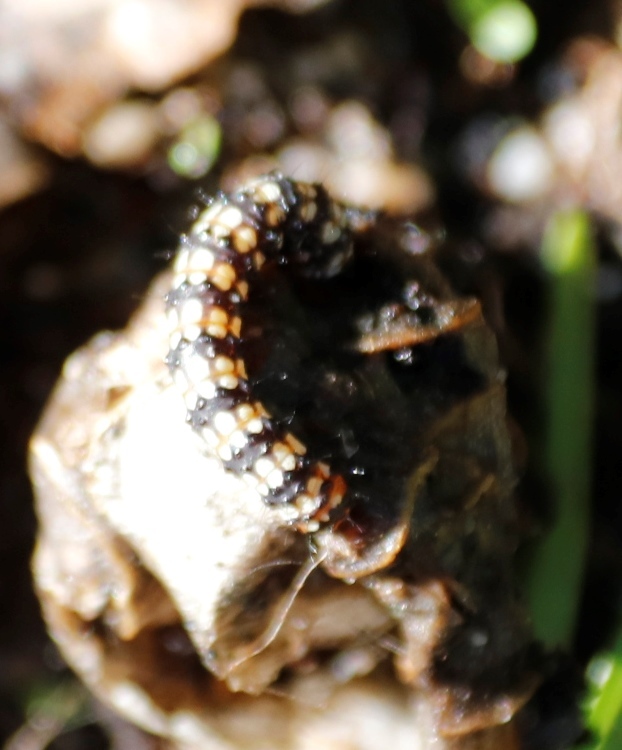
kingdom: Animalia
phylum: Arthropoda
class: Insecta
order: Lepidoptera
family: Noctuidae
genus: Brithys
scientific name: Brithys crini
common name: Kew arches
